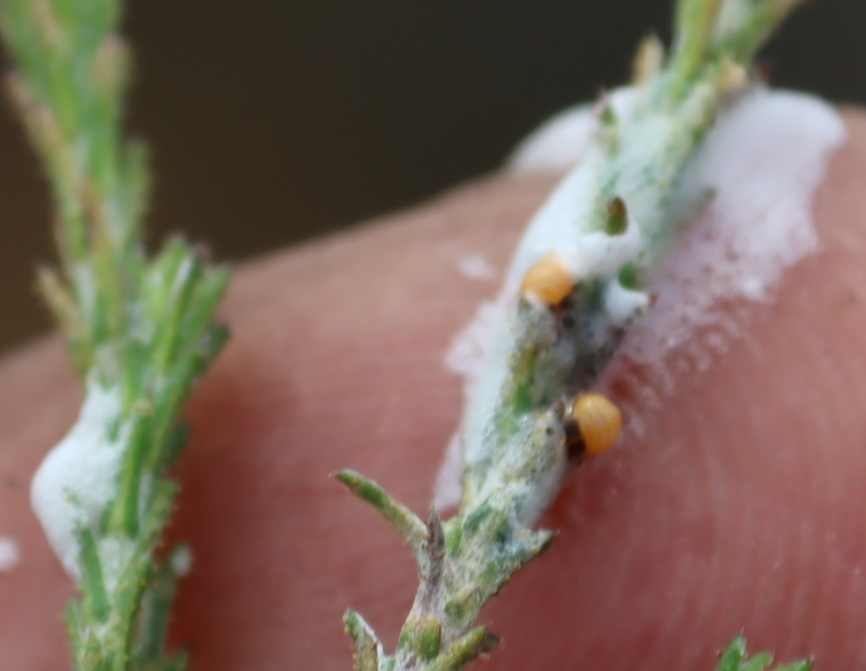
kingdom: Animalia
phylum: Arthropoda
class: Insecta
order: Hemiptera
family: Aphrophoridae
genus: Tremapterus
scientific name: Tremapterus
